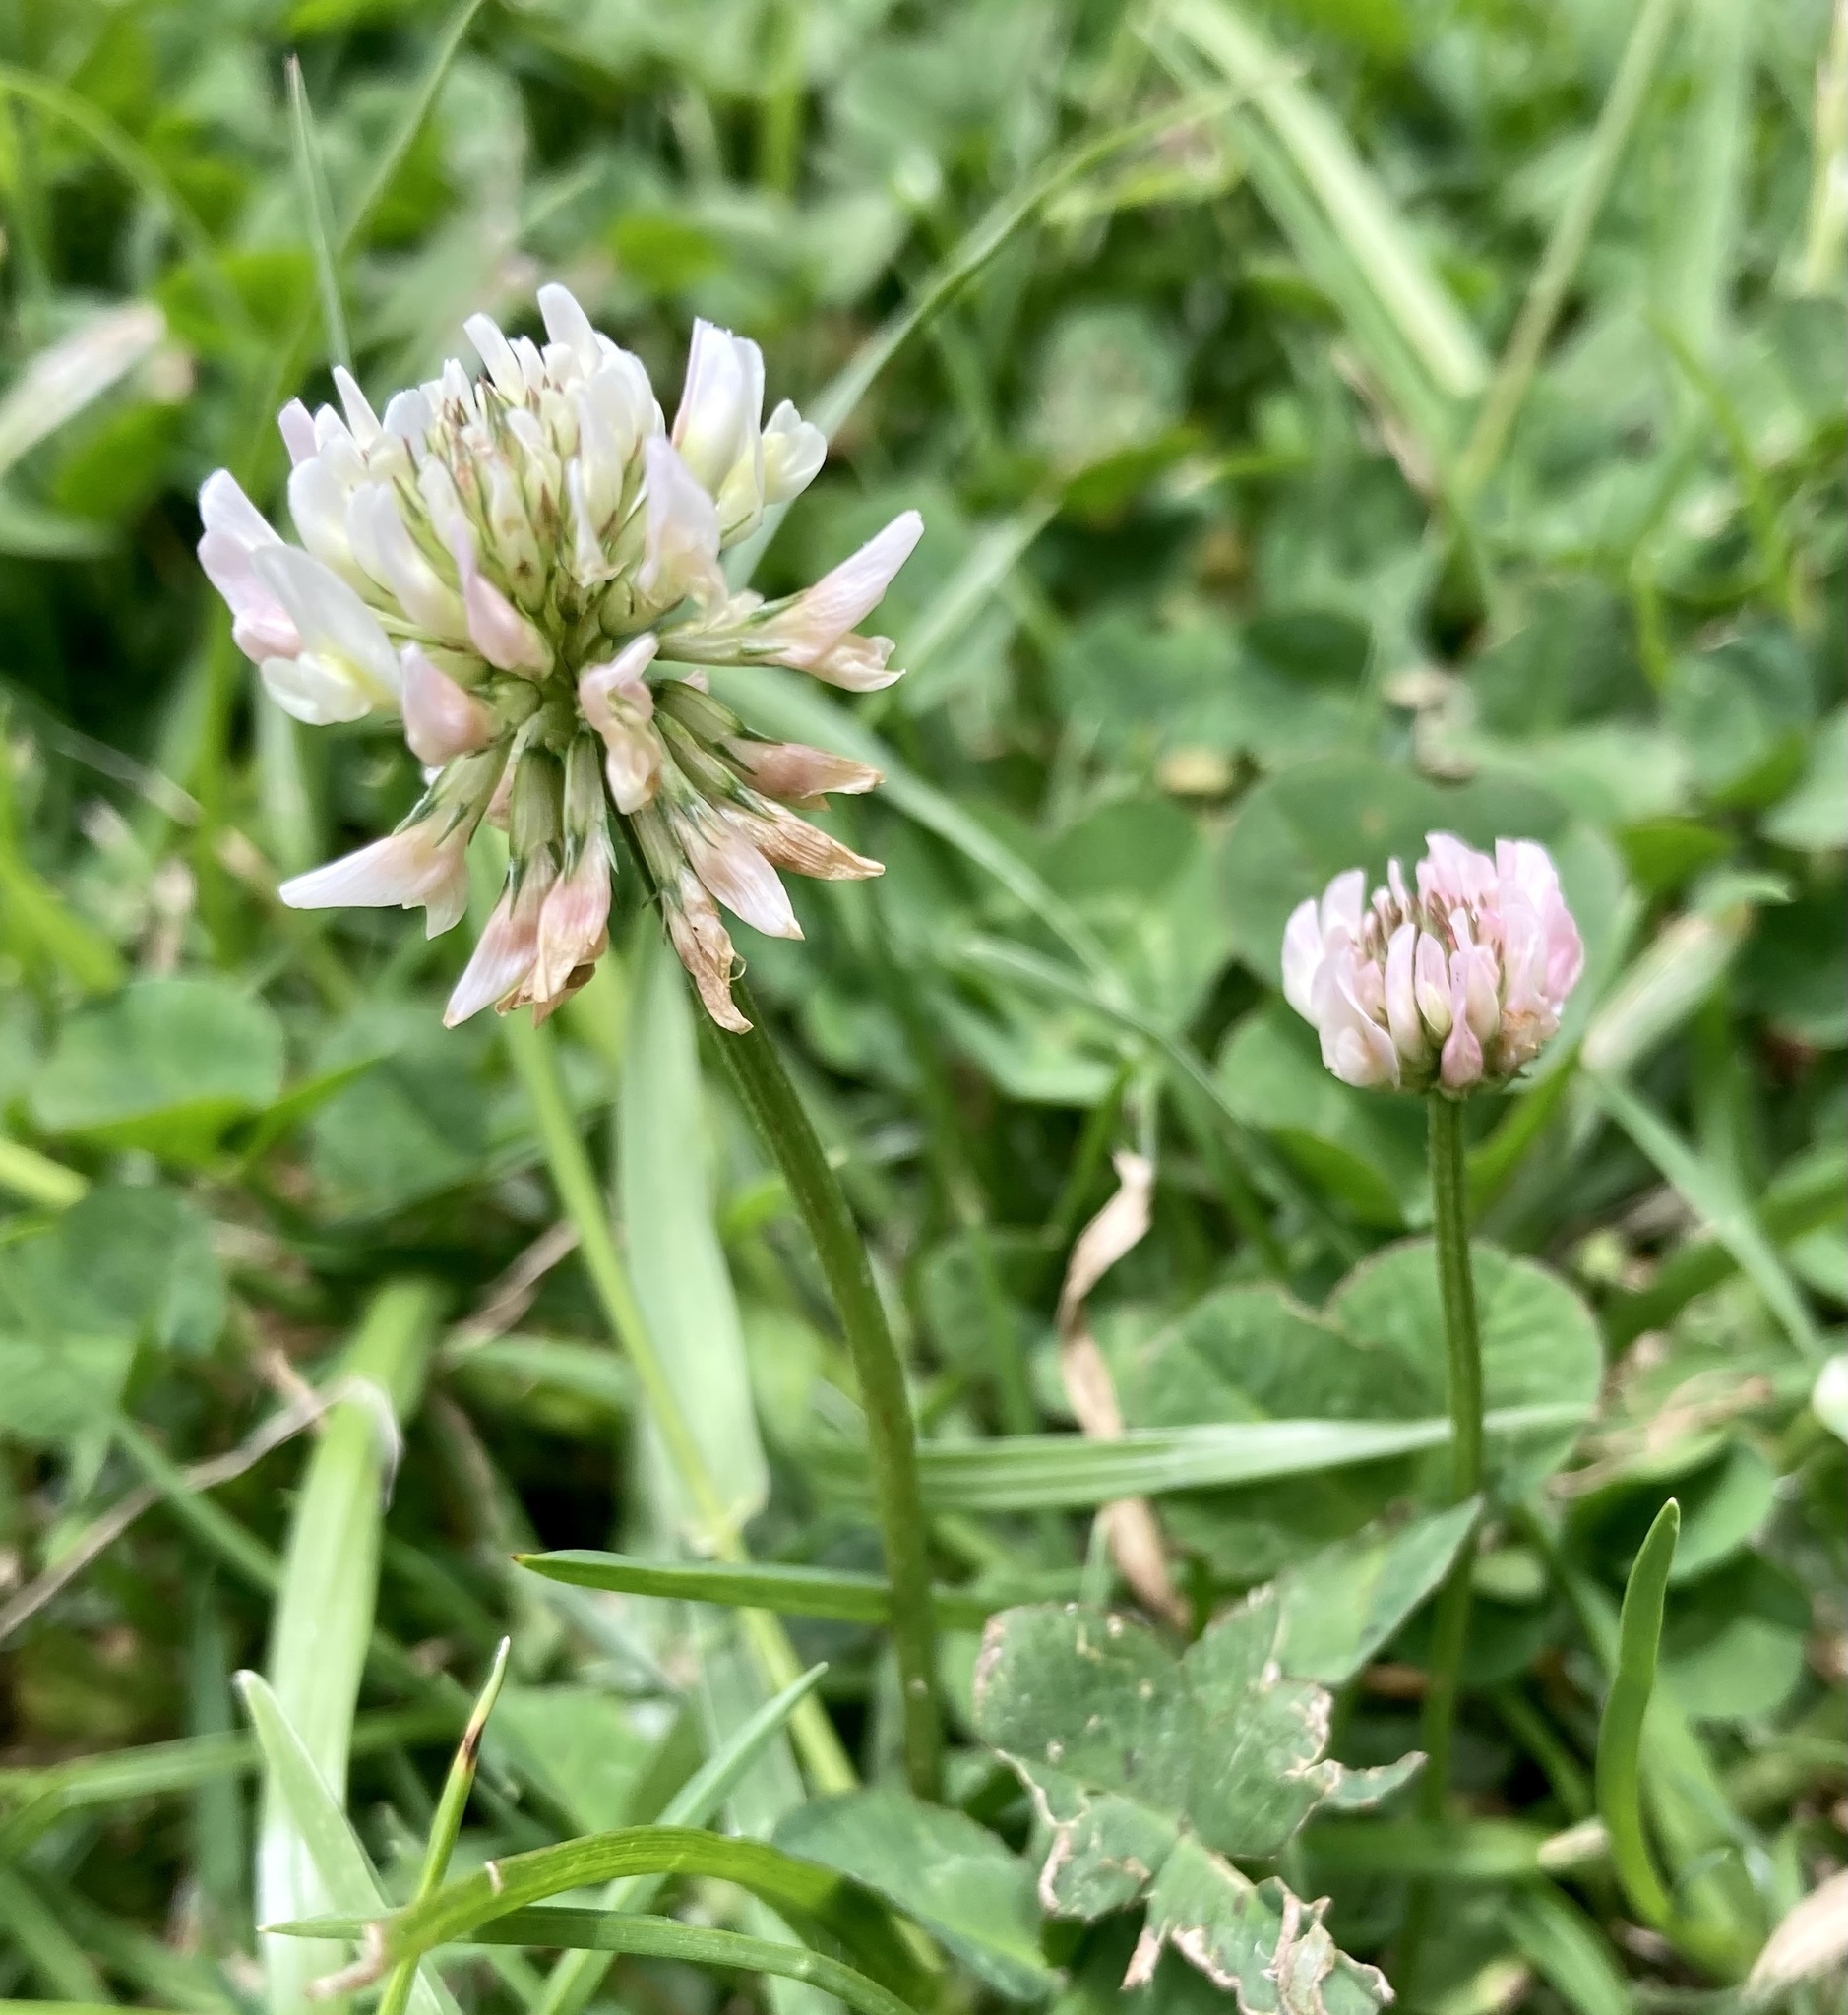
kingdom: Plantae
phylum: Tracheophyta
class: Magnoliopsida
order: Fabales
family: Fabaceae
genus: Trifolium
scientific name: Trifolium repens
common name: White clover
